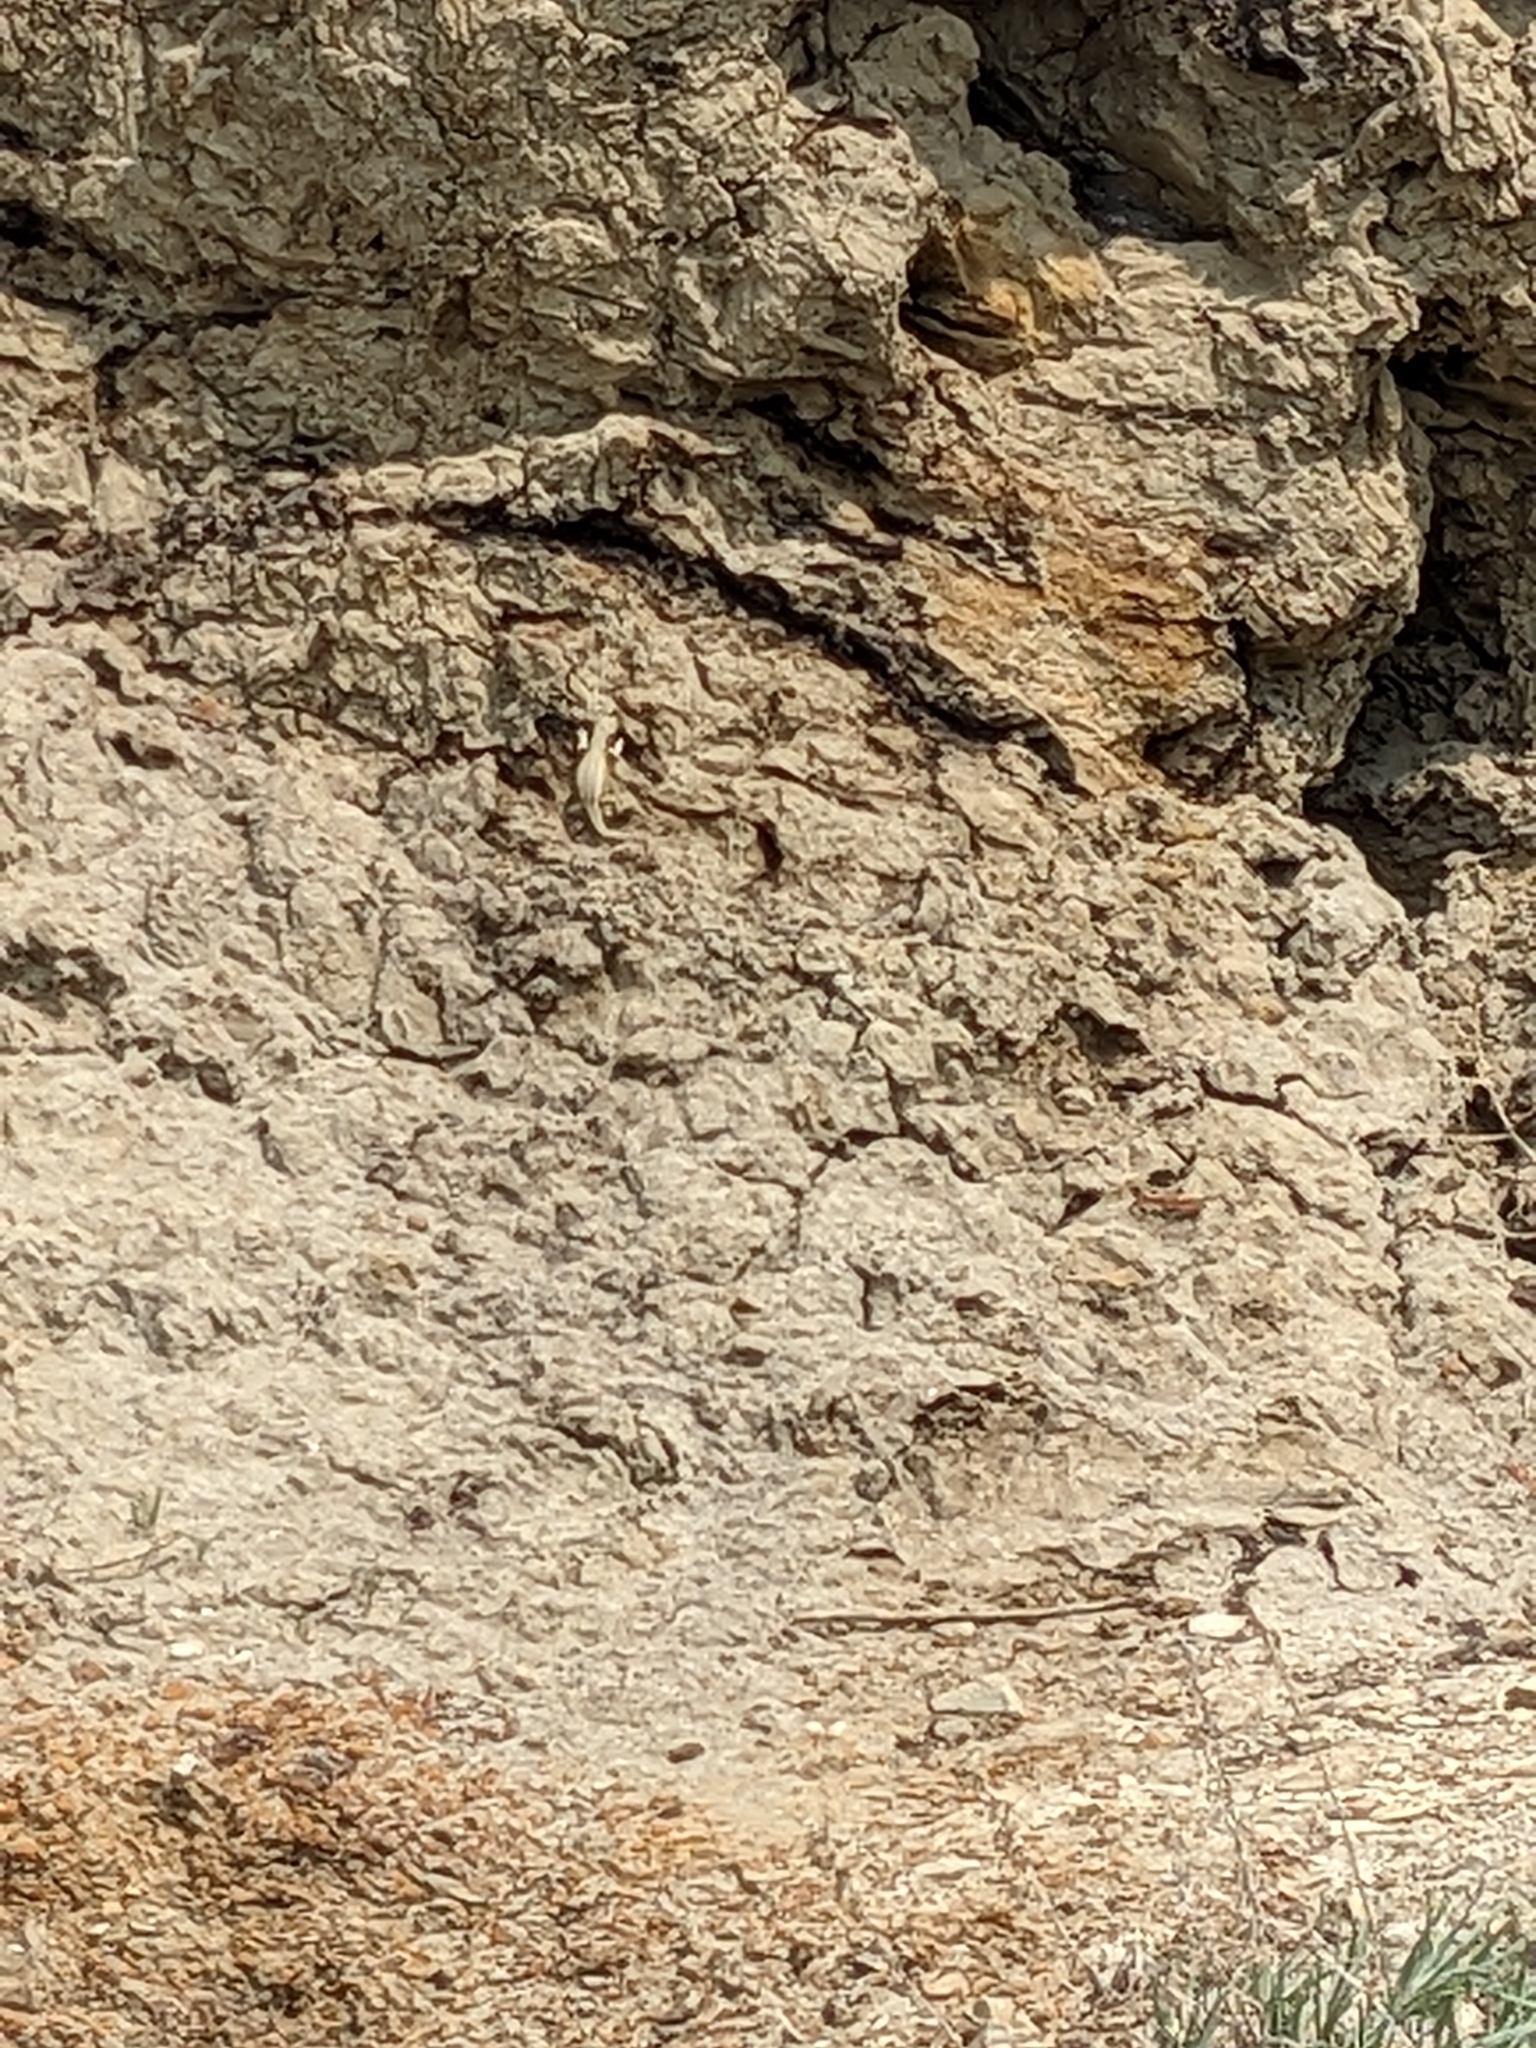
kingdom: Animalia
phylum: Chordata
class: Squamata
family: Phrynosomatidae
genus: Sceloporus
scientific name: Sceloporus graciosus
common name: Sagebrush lizard
